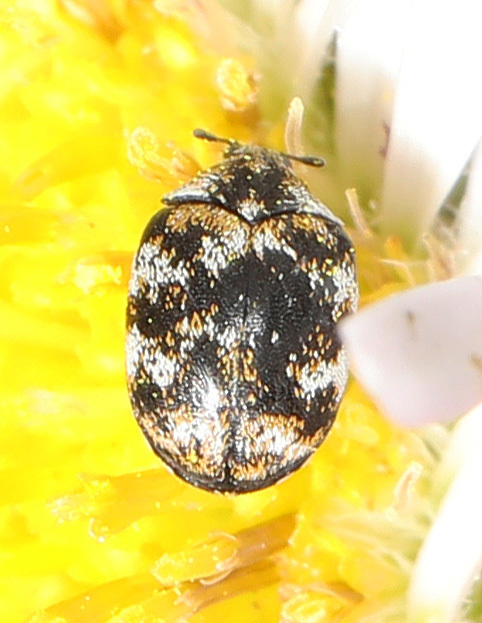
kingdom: Animalia
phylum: Arthropoda
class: Insecta
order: Coleoptera
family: Dermestidae
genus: Anthrenus
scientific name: Anthrenus verbasci
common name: Varied carpet beetle
